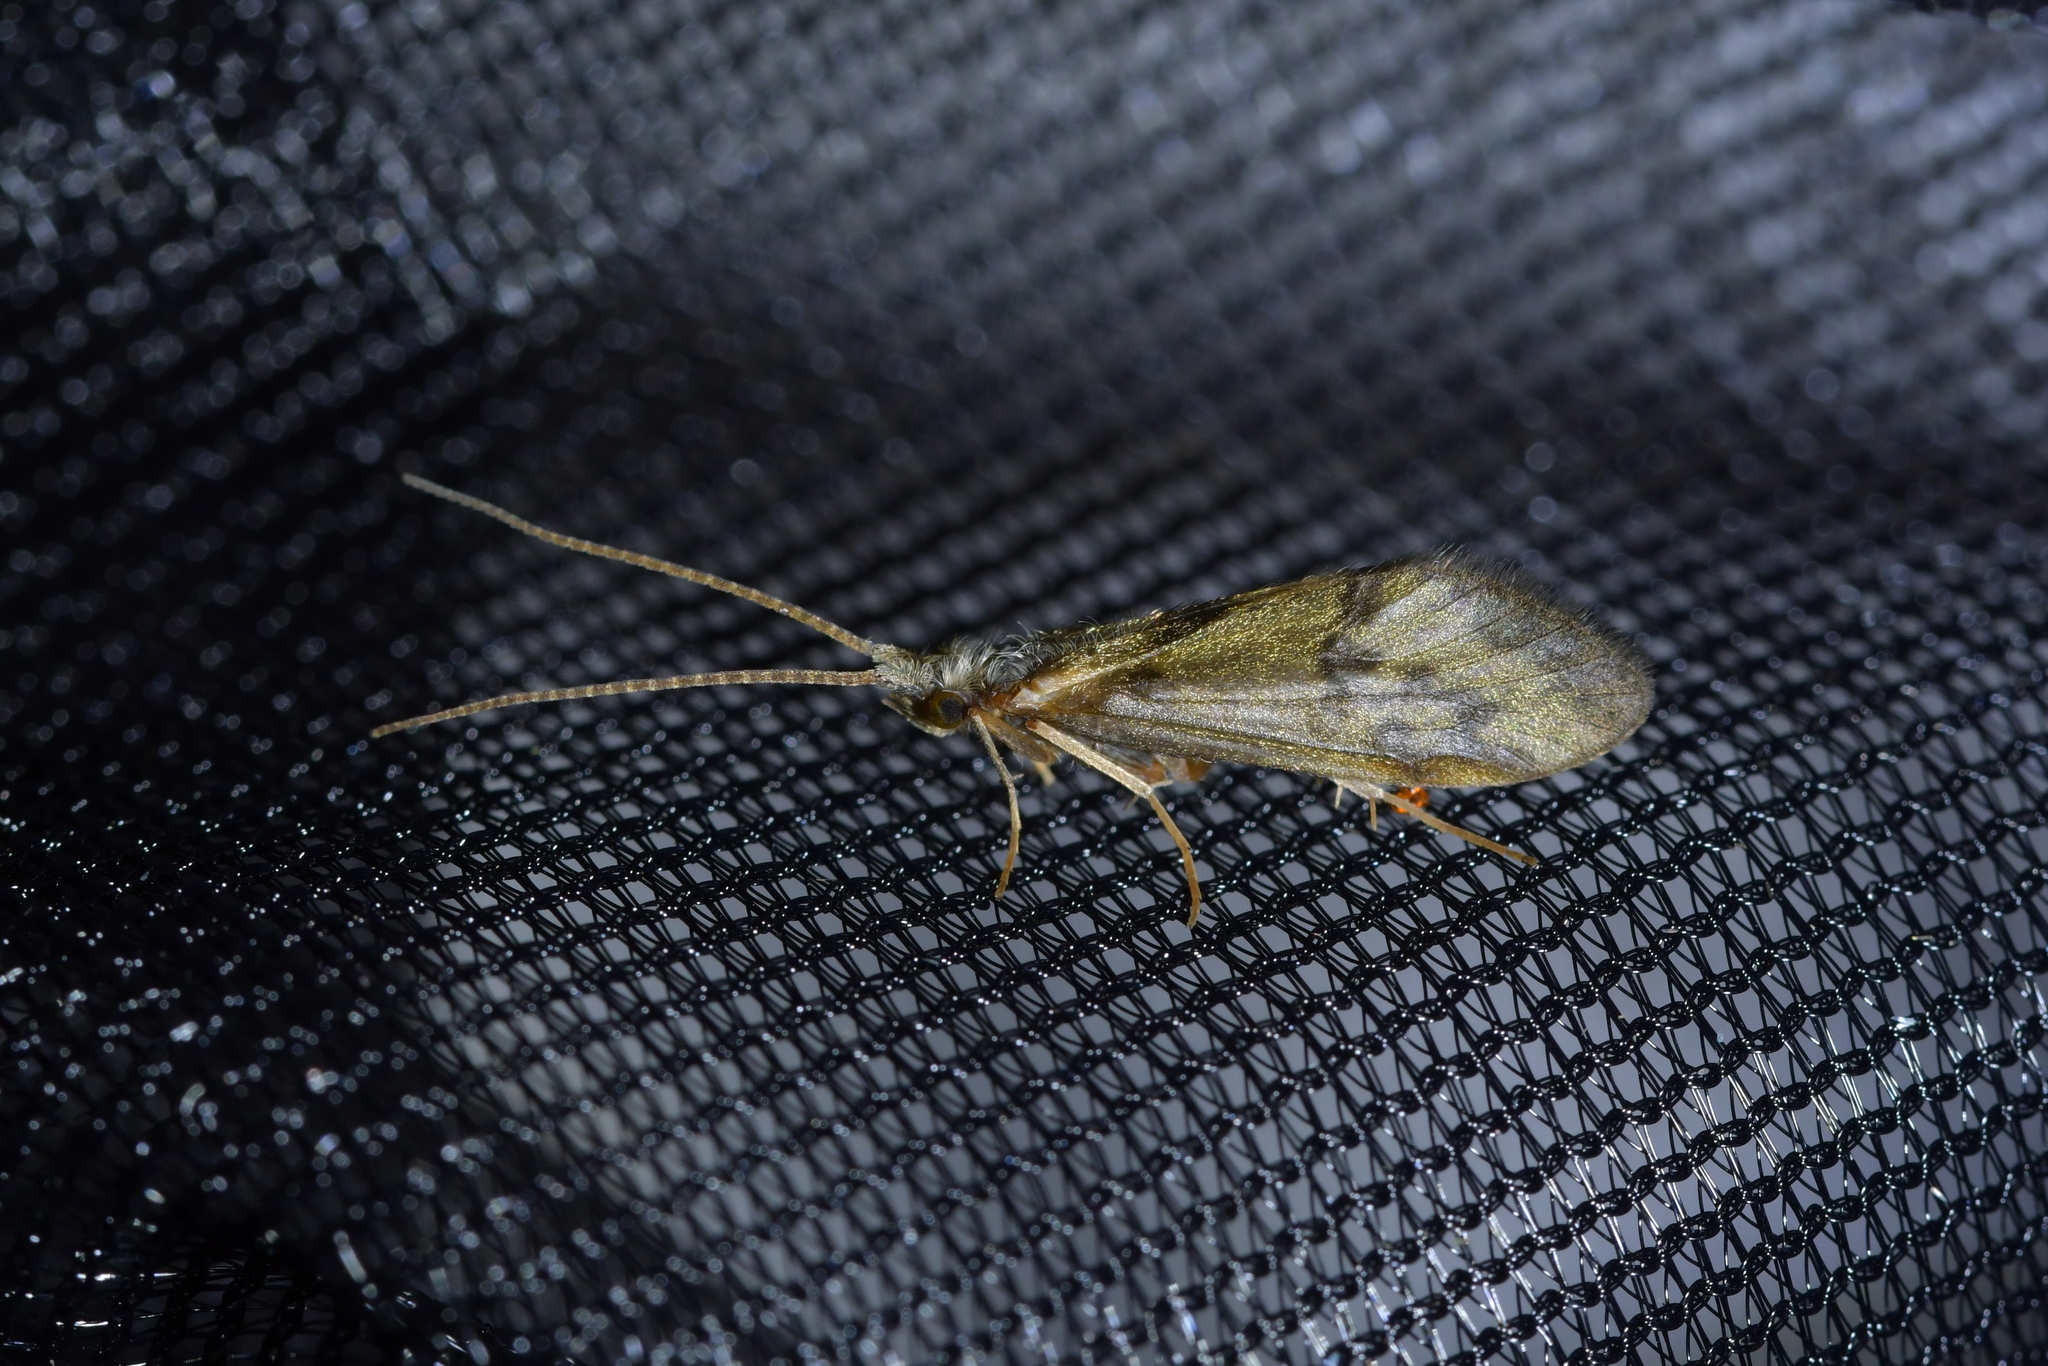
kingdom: Animalia
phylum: Arthropoda
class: Insecta
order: Trichoptera
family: Conoesucidae
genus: Pycnocentrodes
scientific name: Pycnocentrodes aeris
